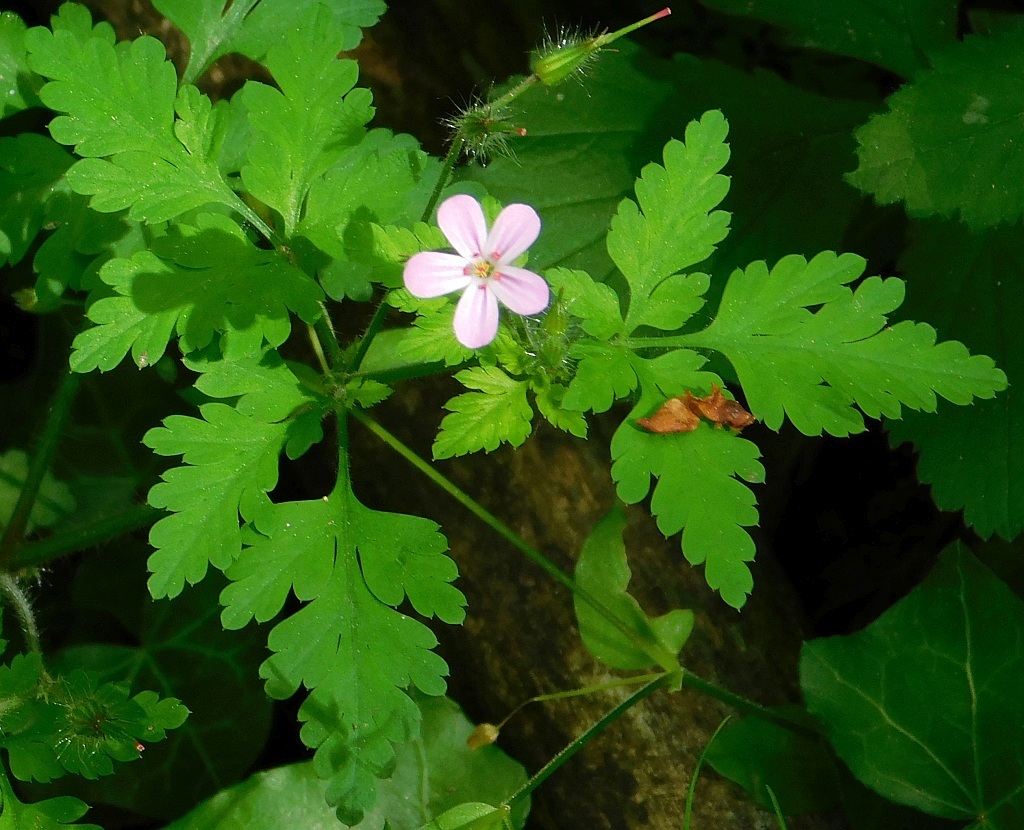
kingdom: Plantae
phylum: Tracheophyta
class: Magnoliopsida
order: Geraniales
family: Geraniaceae
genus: Geranium
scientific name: Geranium robertianum
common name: Herb-robert
